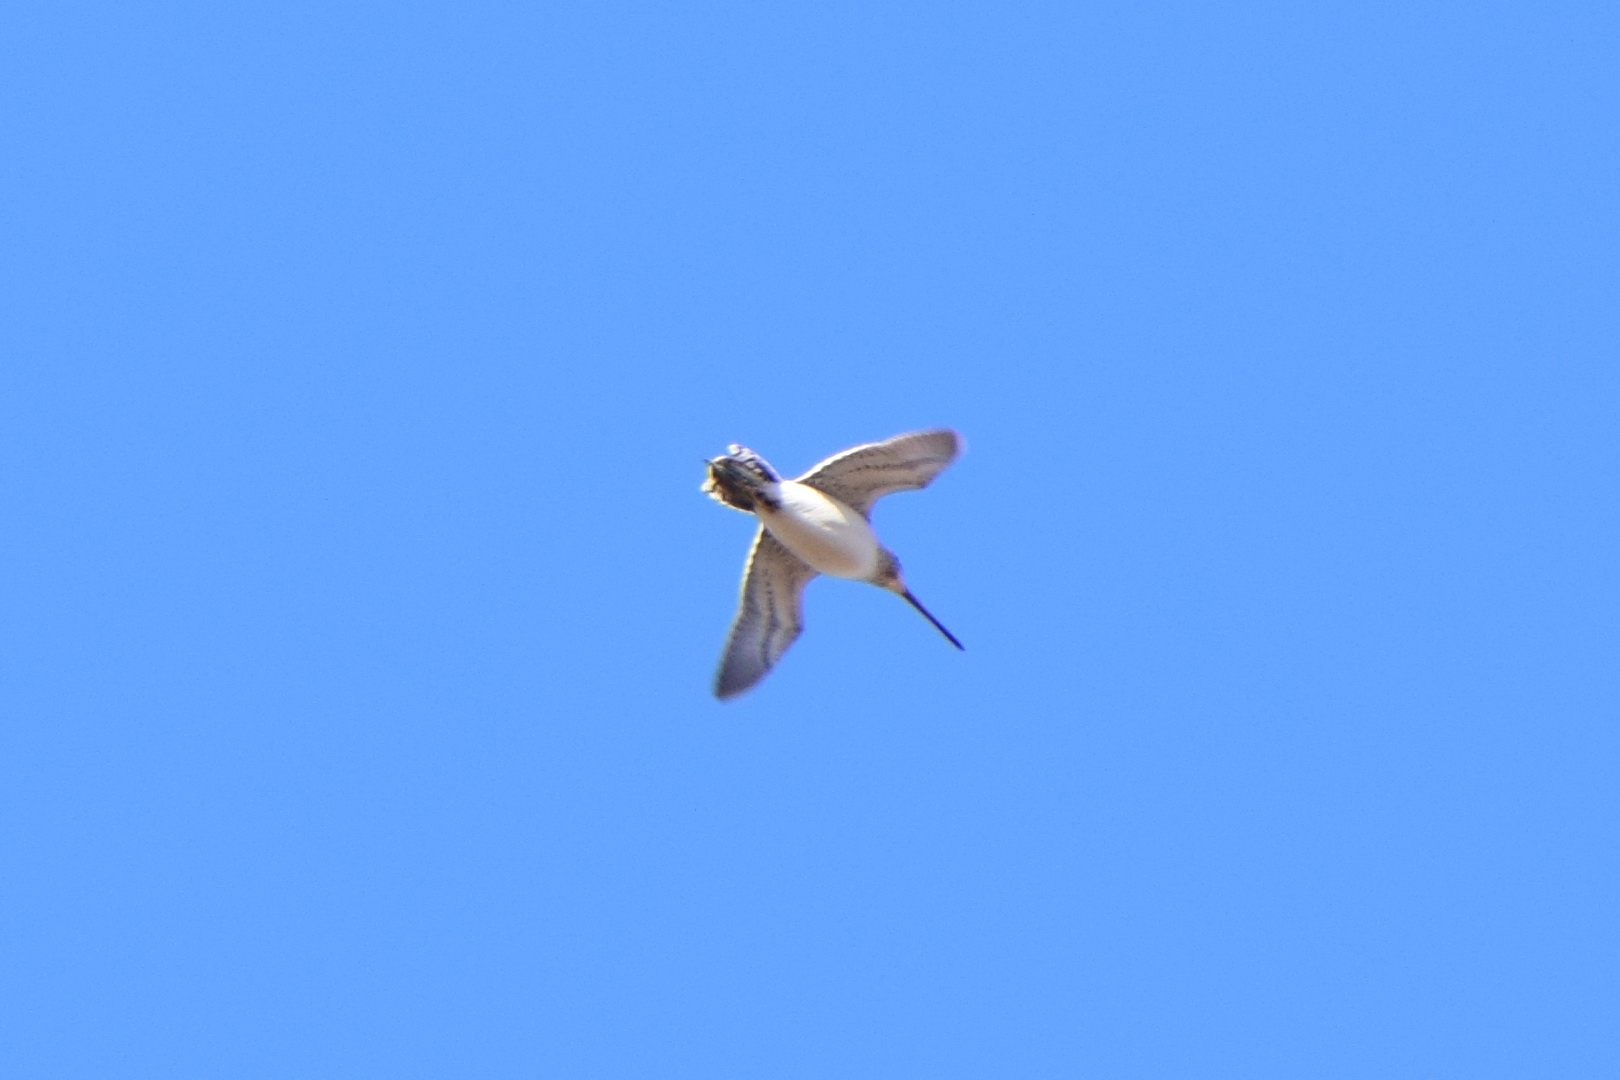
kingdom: Animalia
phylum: Chordata
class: Aves
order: Charadriiformes
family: Scolopacidae
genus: Gallinago
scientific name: Gallinago gallinago
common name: Common snipe
